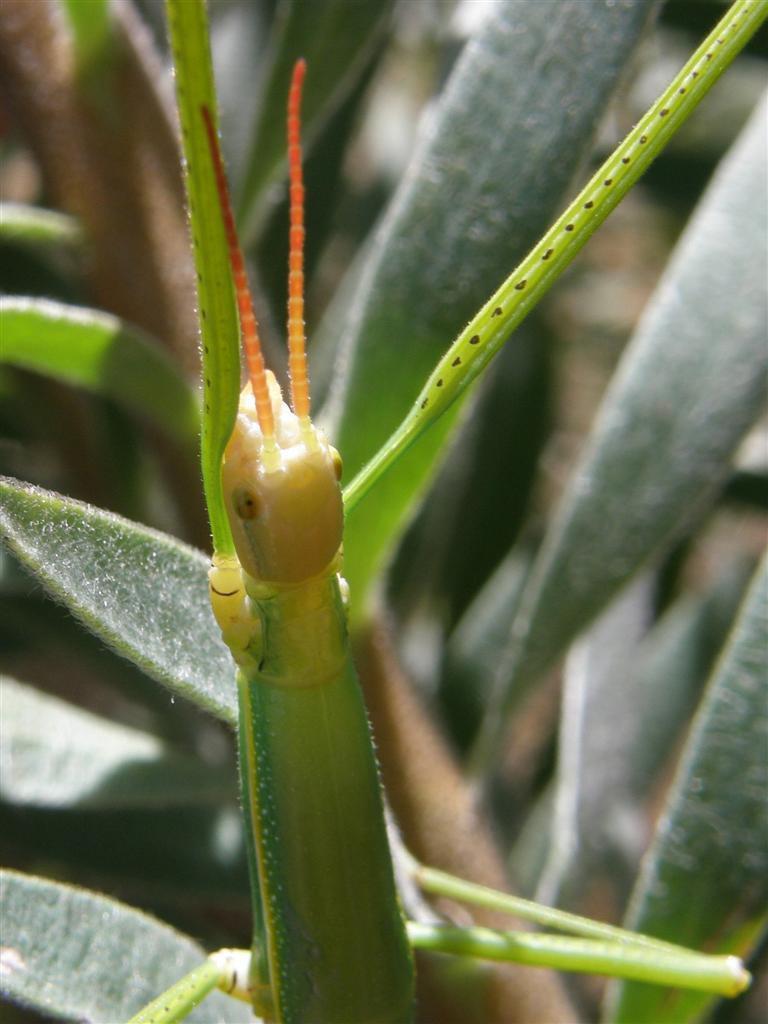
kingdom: Animalia
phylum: Arthropoda
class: Insecta
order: Phasmida
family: Bacillidae
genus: Macynia
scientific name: Macynia labiata
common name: Thunberg's stick insect
